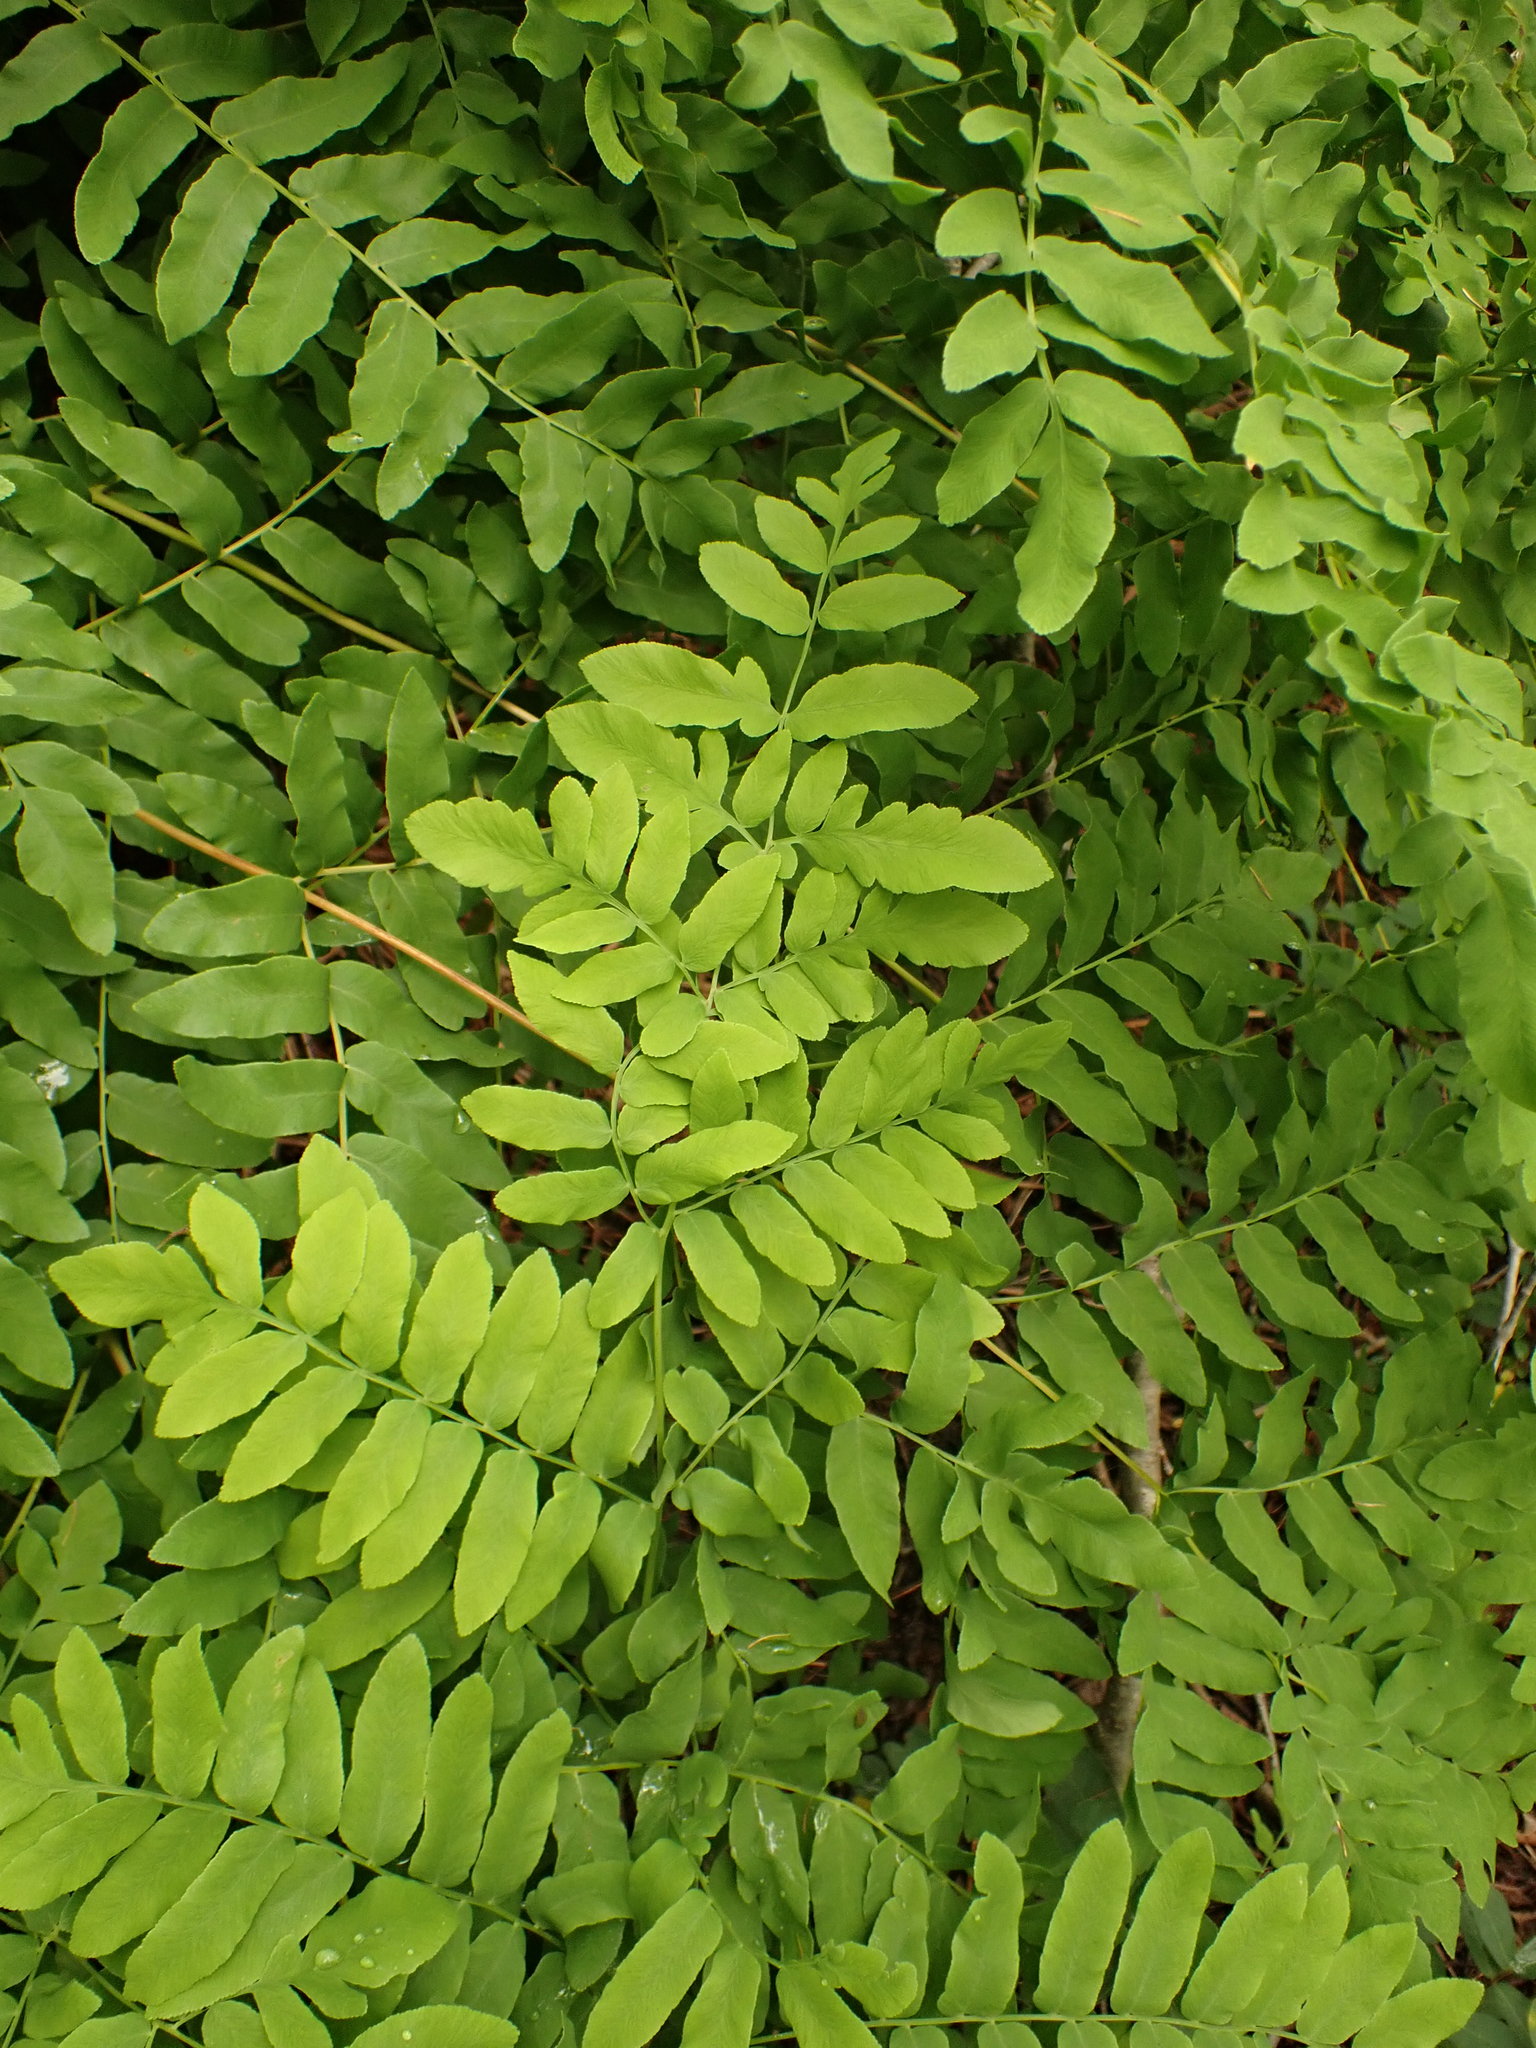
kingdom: Plantae
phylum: Tracheophyta
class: Polypodiopsida
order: Osmundales
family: Osmundaceae
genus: Osmunda
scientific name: Osmunda spectabilis
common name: American royal fern
